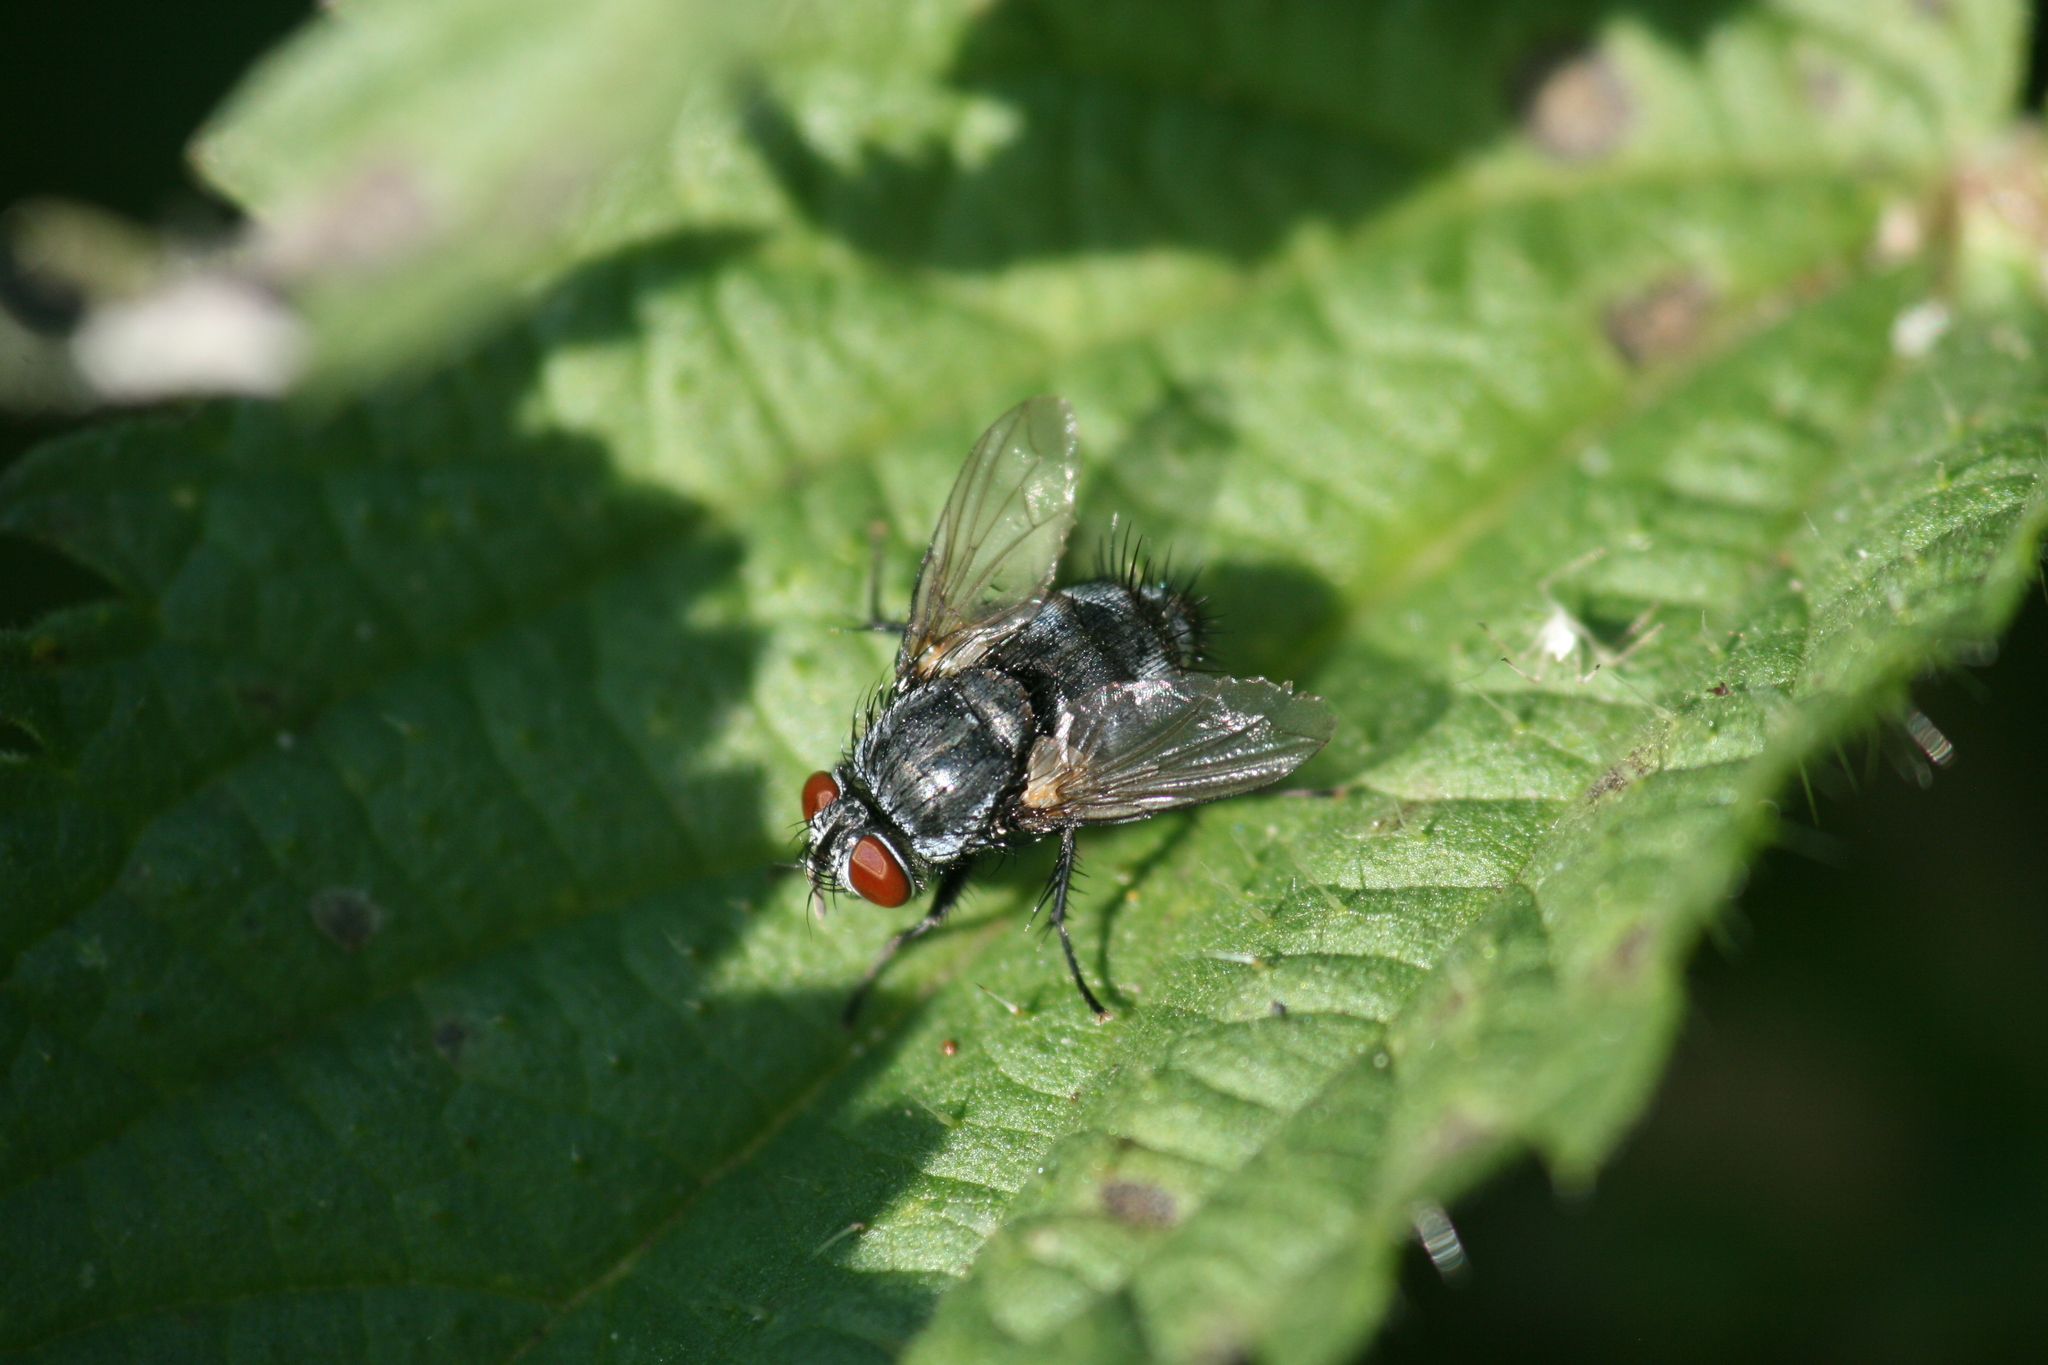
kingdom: Animalia
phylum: Arthropoda
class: Insecta
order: Diptera
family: Tachinidae
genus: Epicampocera
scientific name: Epicampocera succincta
